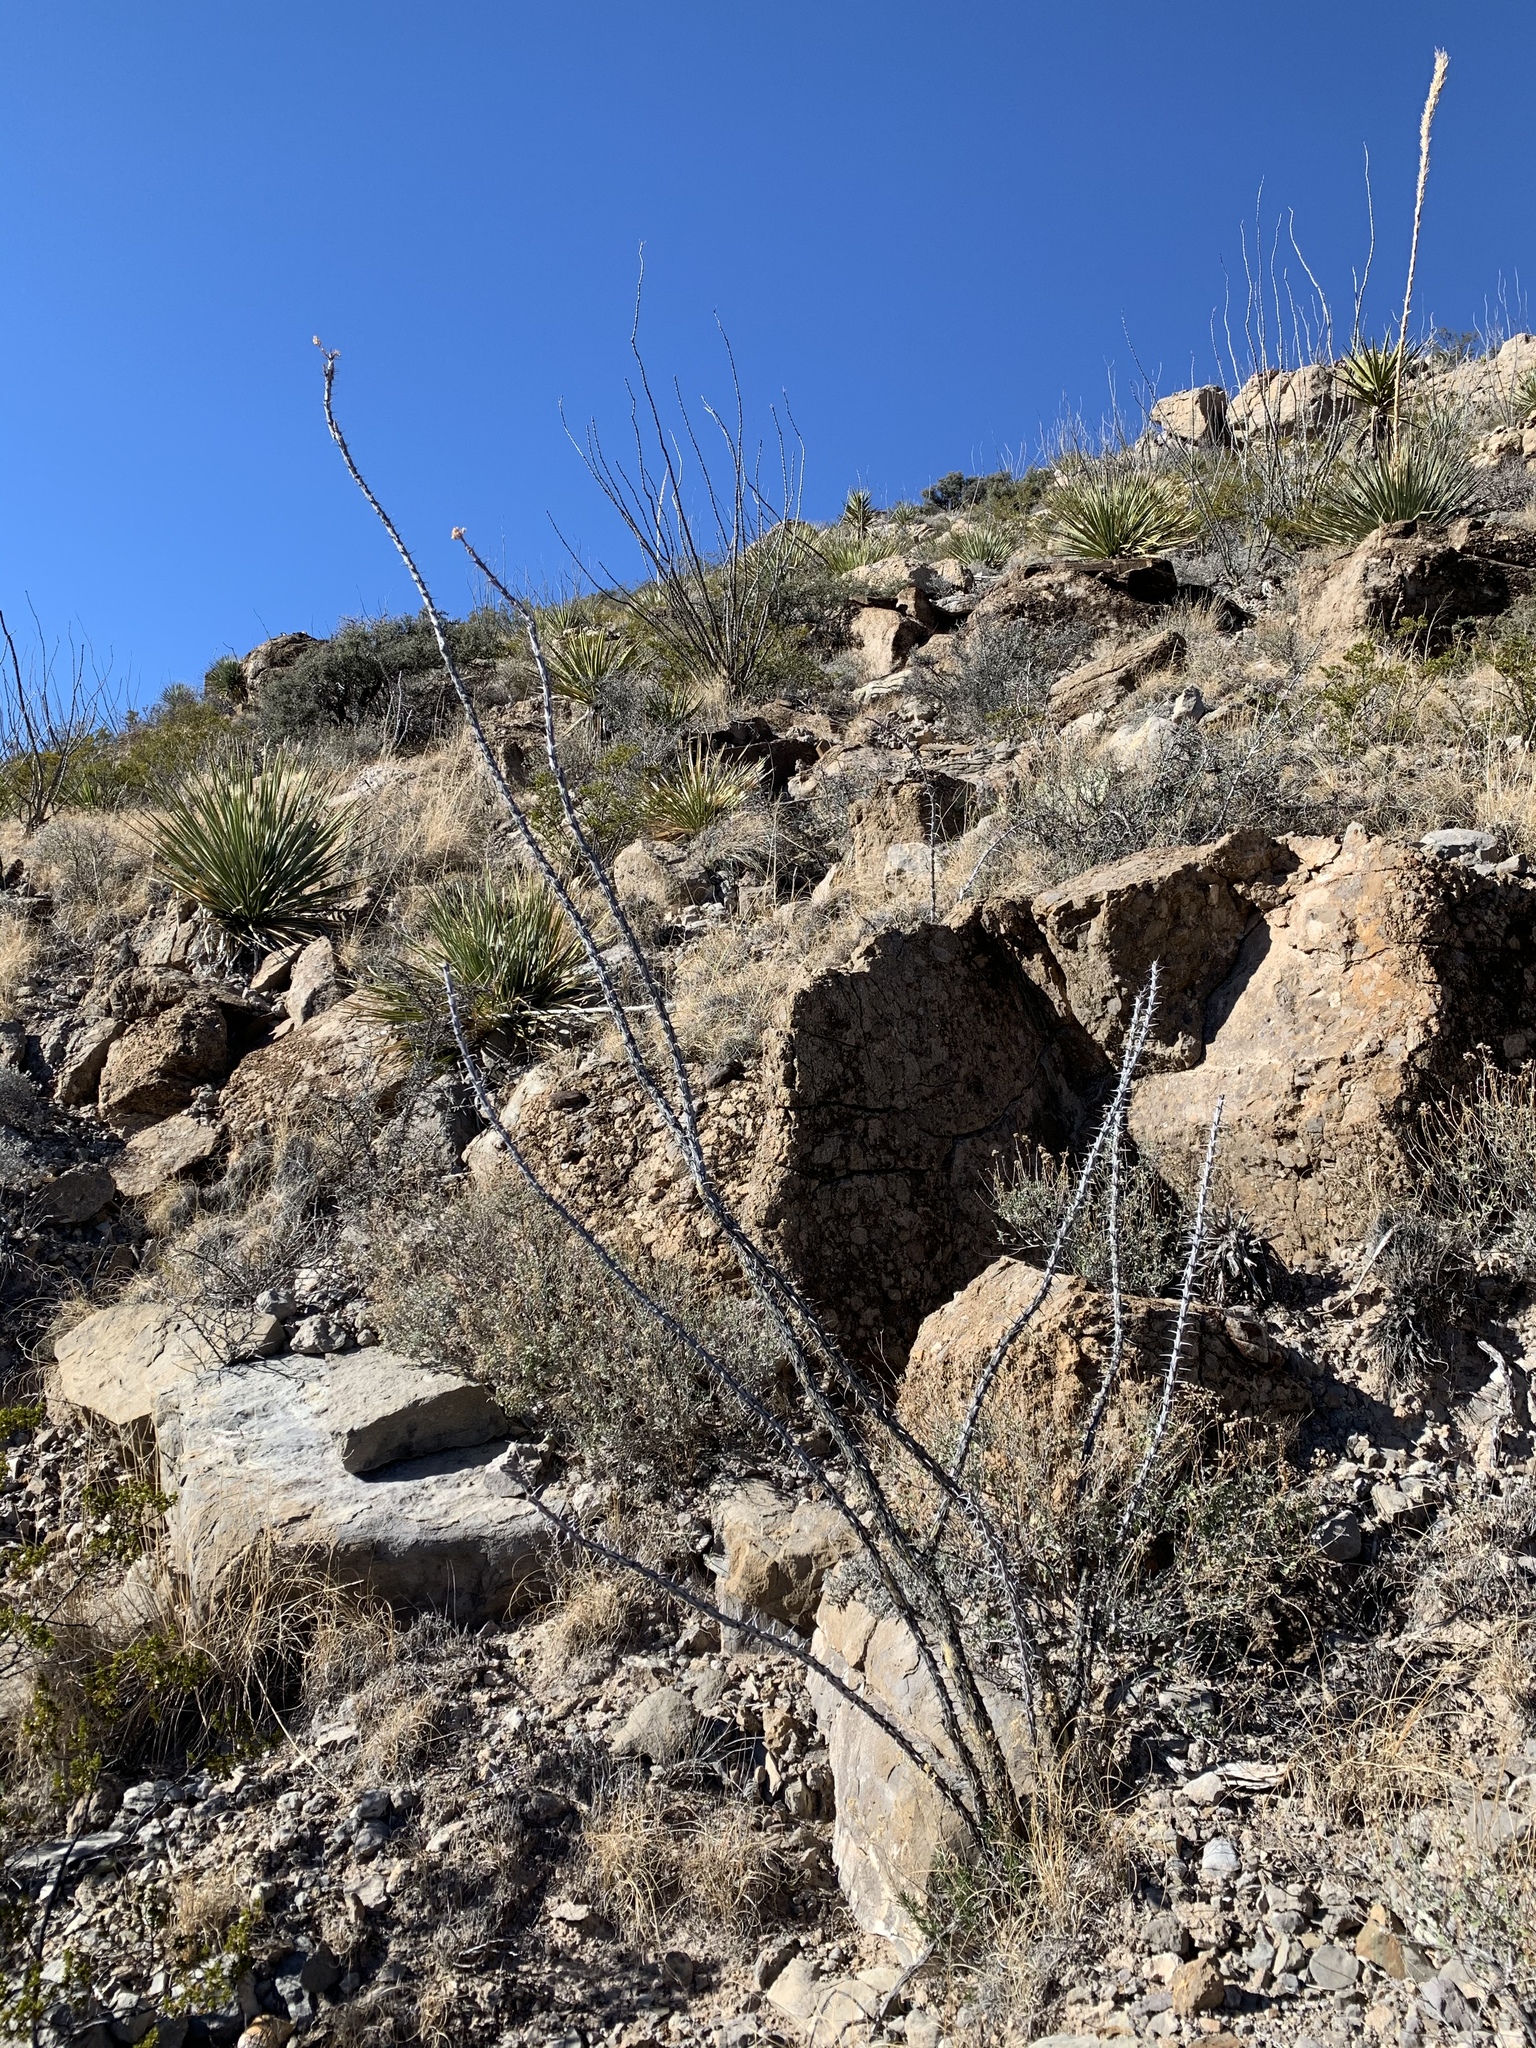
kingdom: Plantae
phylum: Tracheophyta
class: Magnoliopsida
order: Ericales
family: Fouquieriaceae
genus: Fouquieria
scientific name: Fouquieria splendens
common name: Vine-cactus
